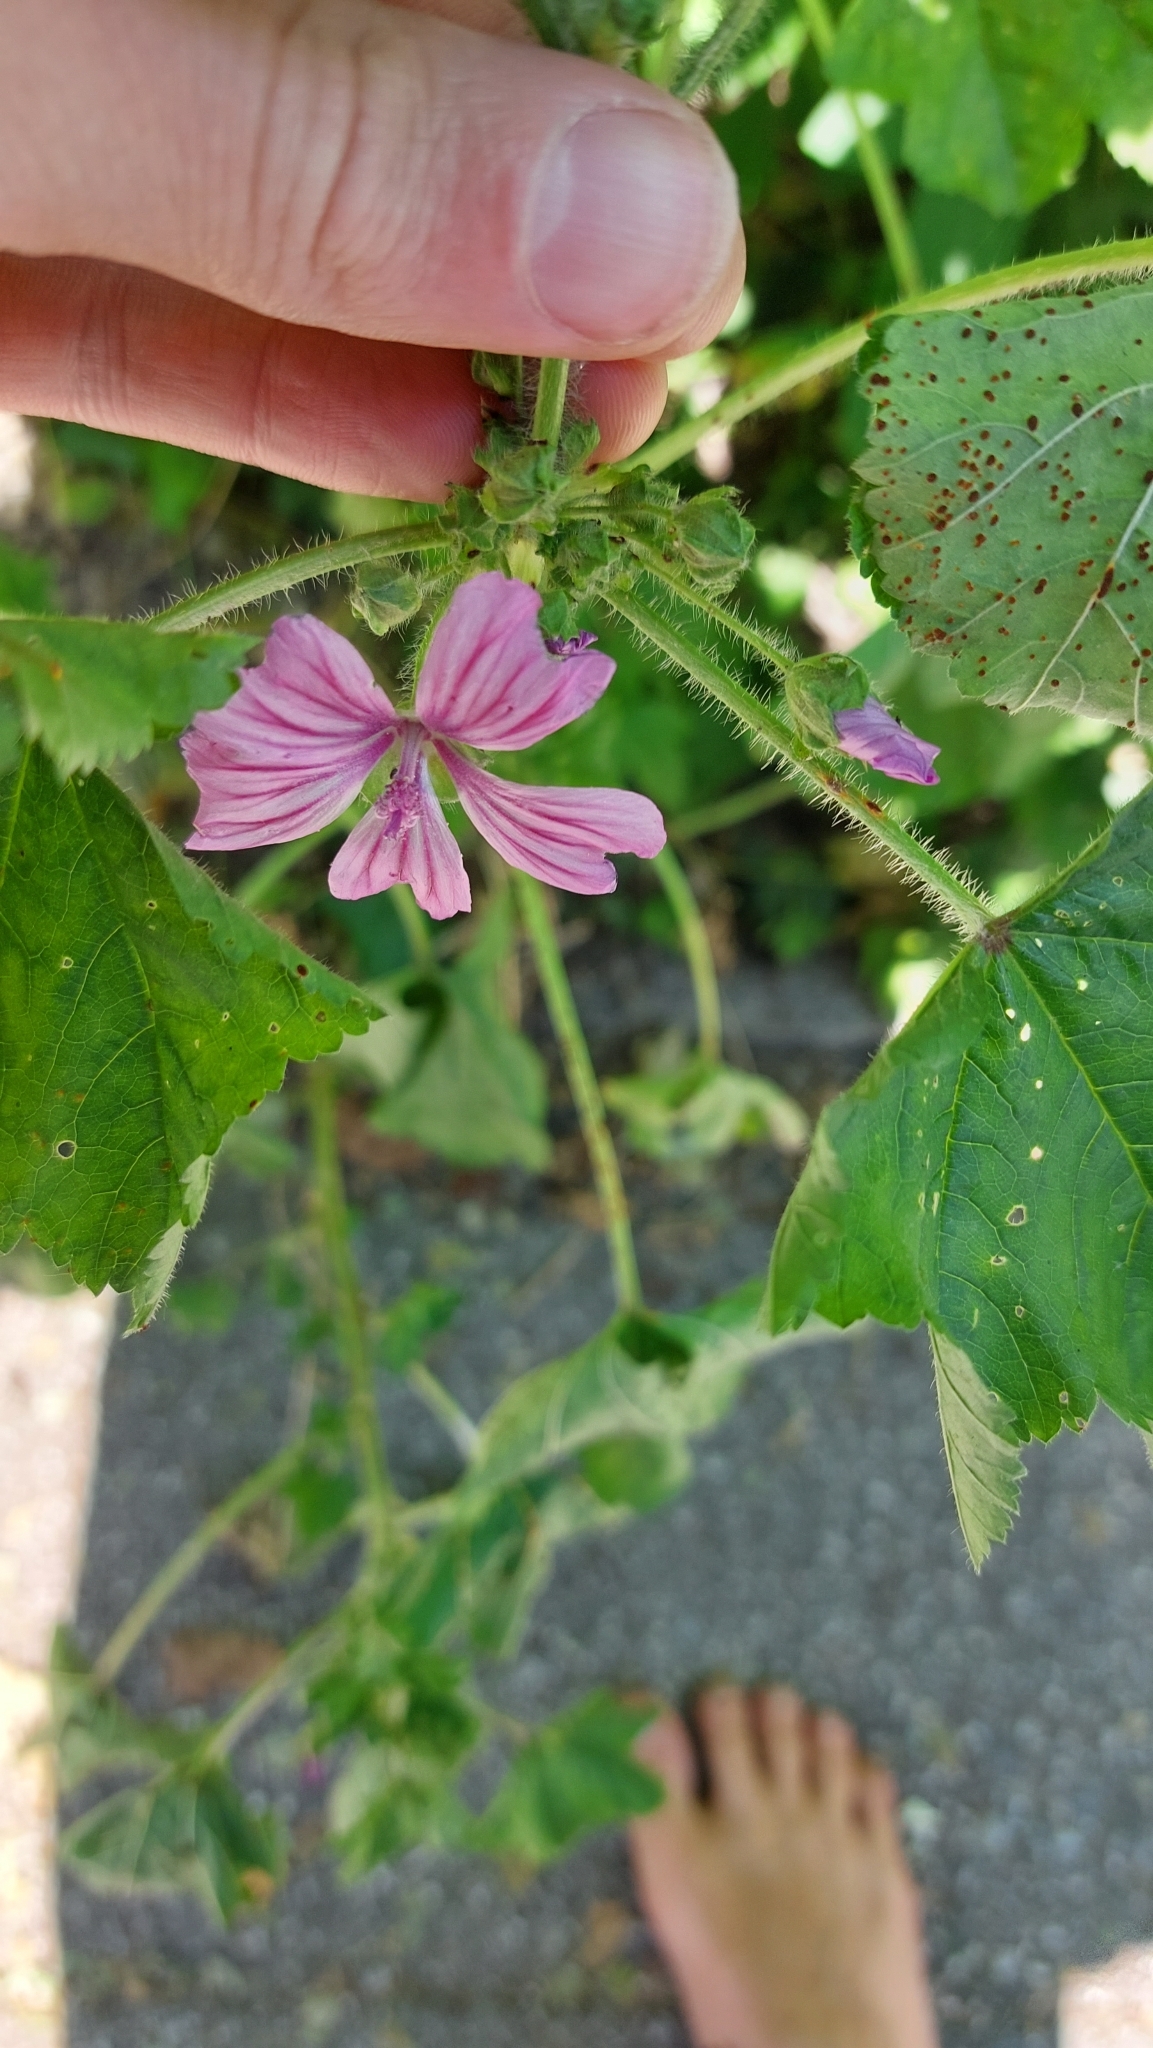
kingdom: Plantae
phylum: Tracheophyta
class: Magnoliopsida
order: Malvales
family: Malvaceae
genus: Malva
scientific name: Malva sylvestris
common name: Common mallow
